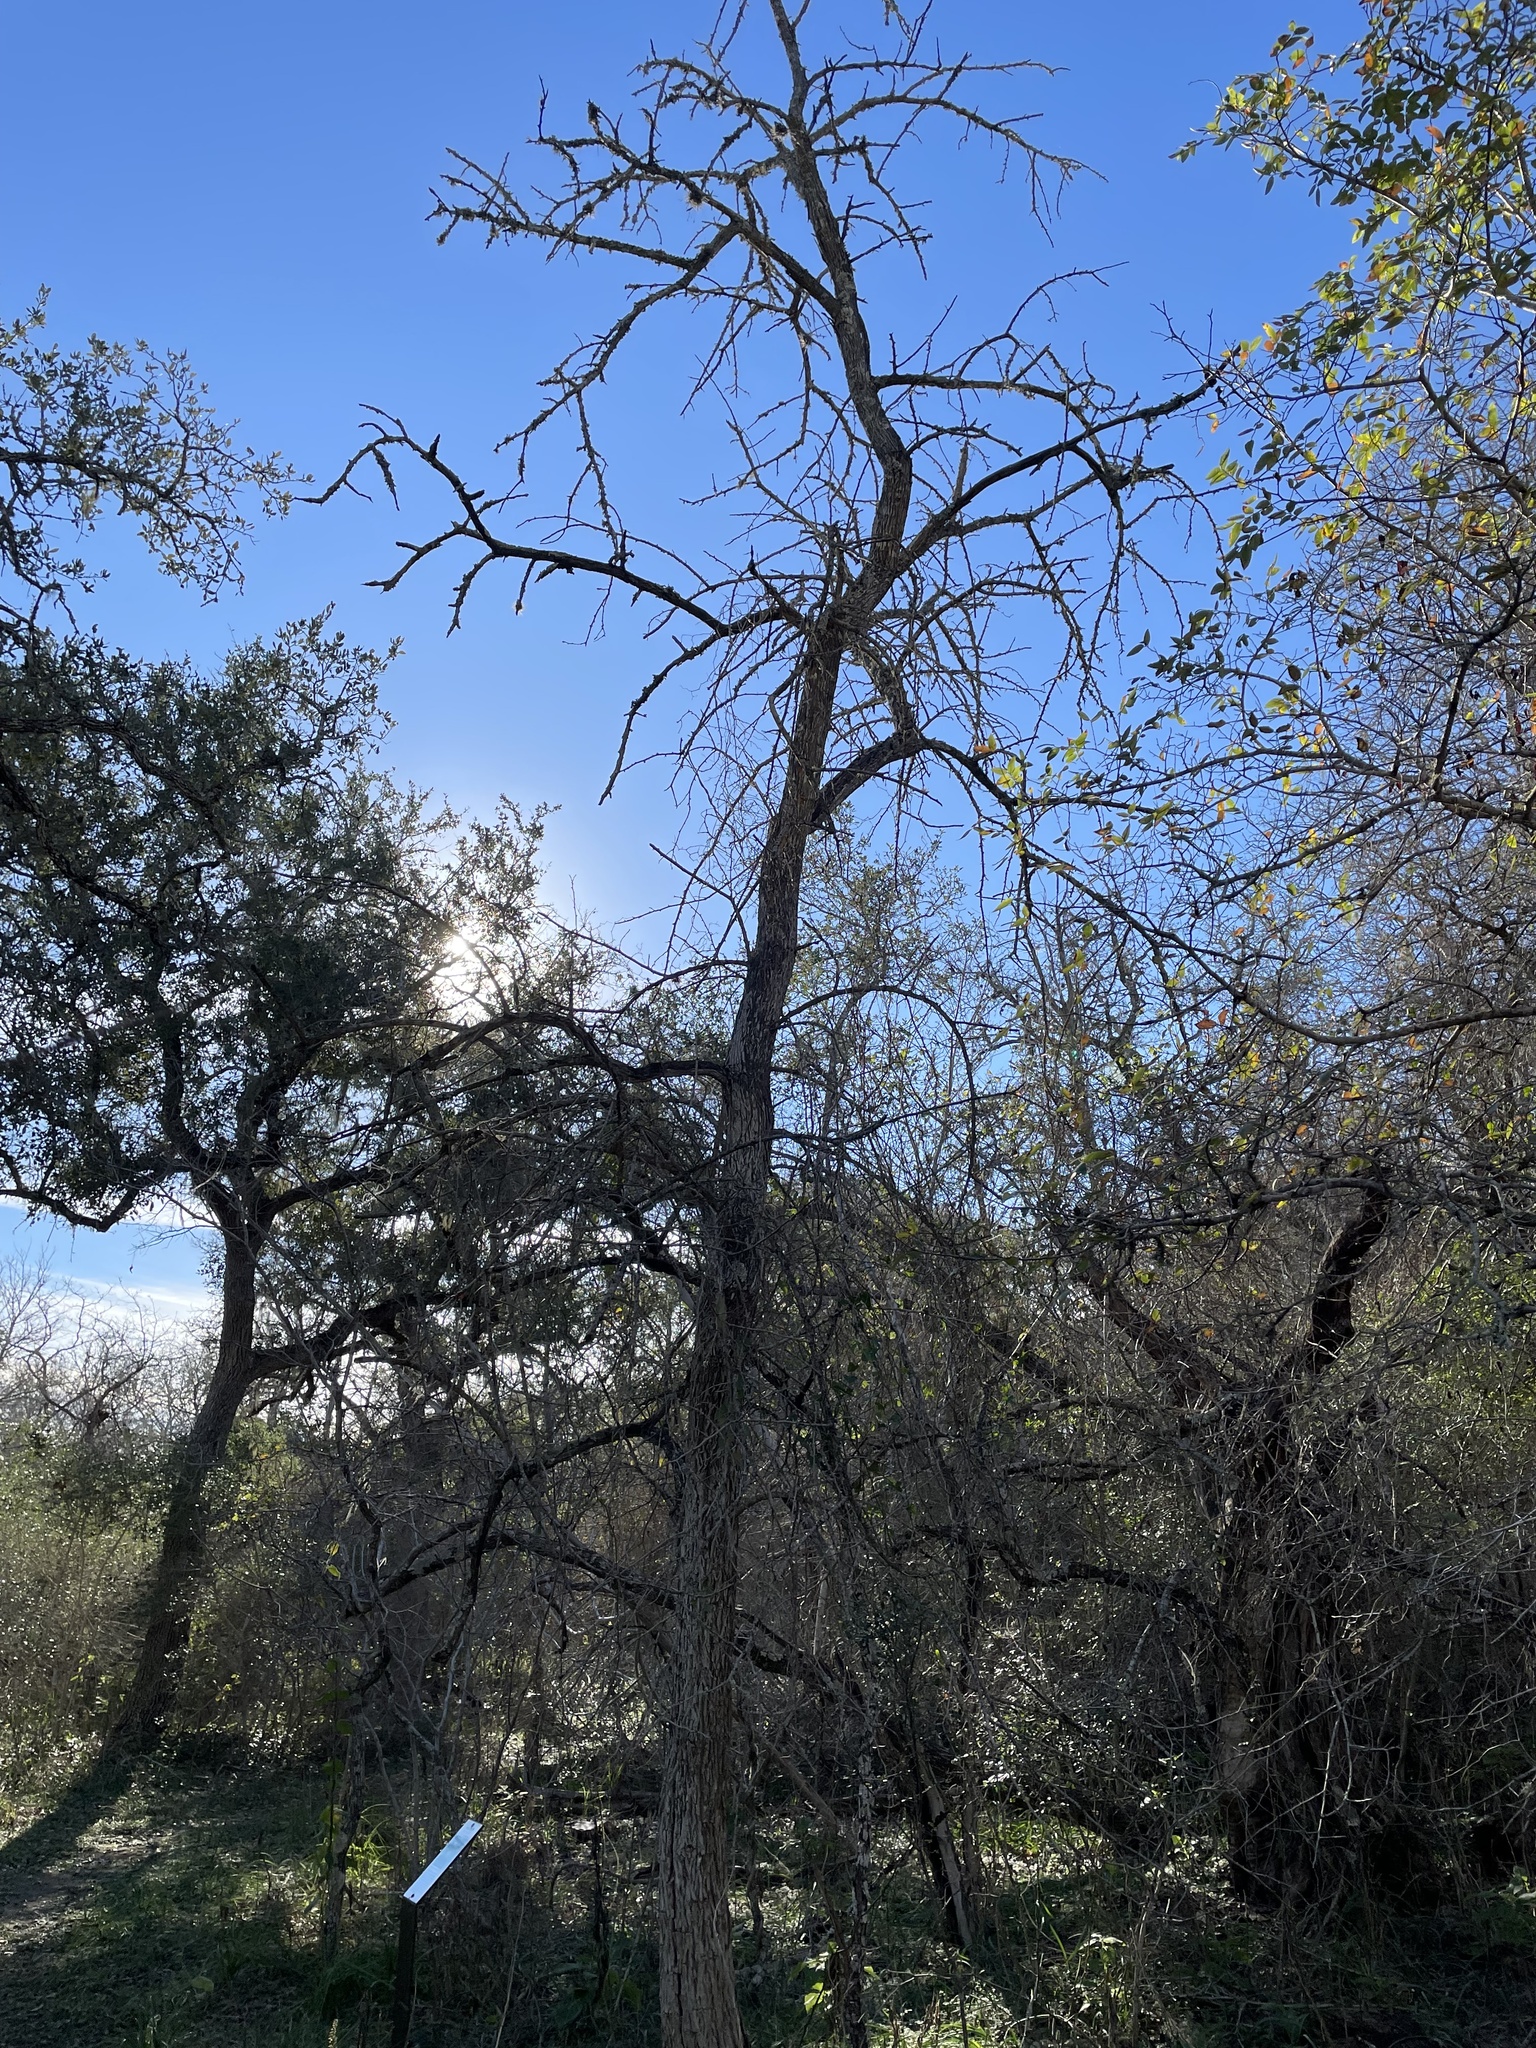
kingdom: Plantae
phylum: Tracheophyta
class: Magnoliopsida
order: Rosales
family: Moraceae
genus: Maclura
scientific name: Maclura pomifera
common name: Osage-orange
